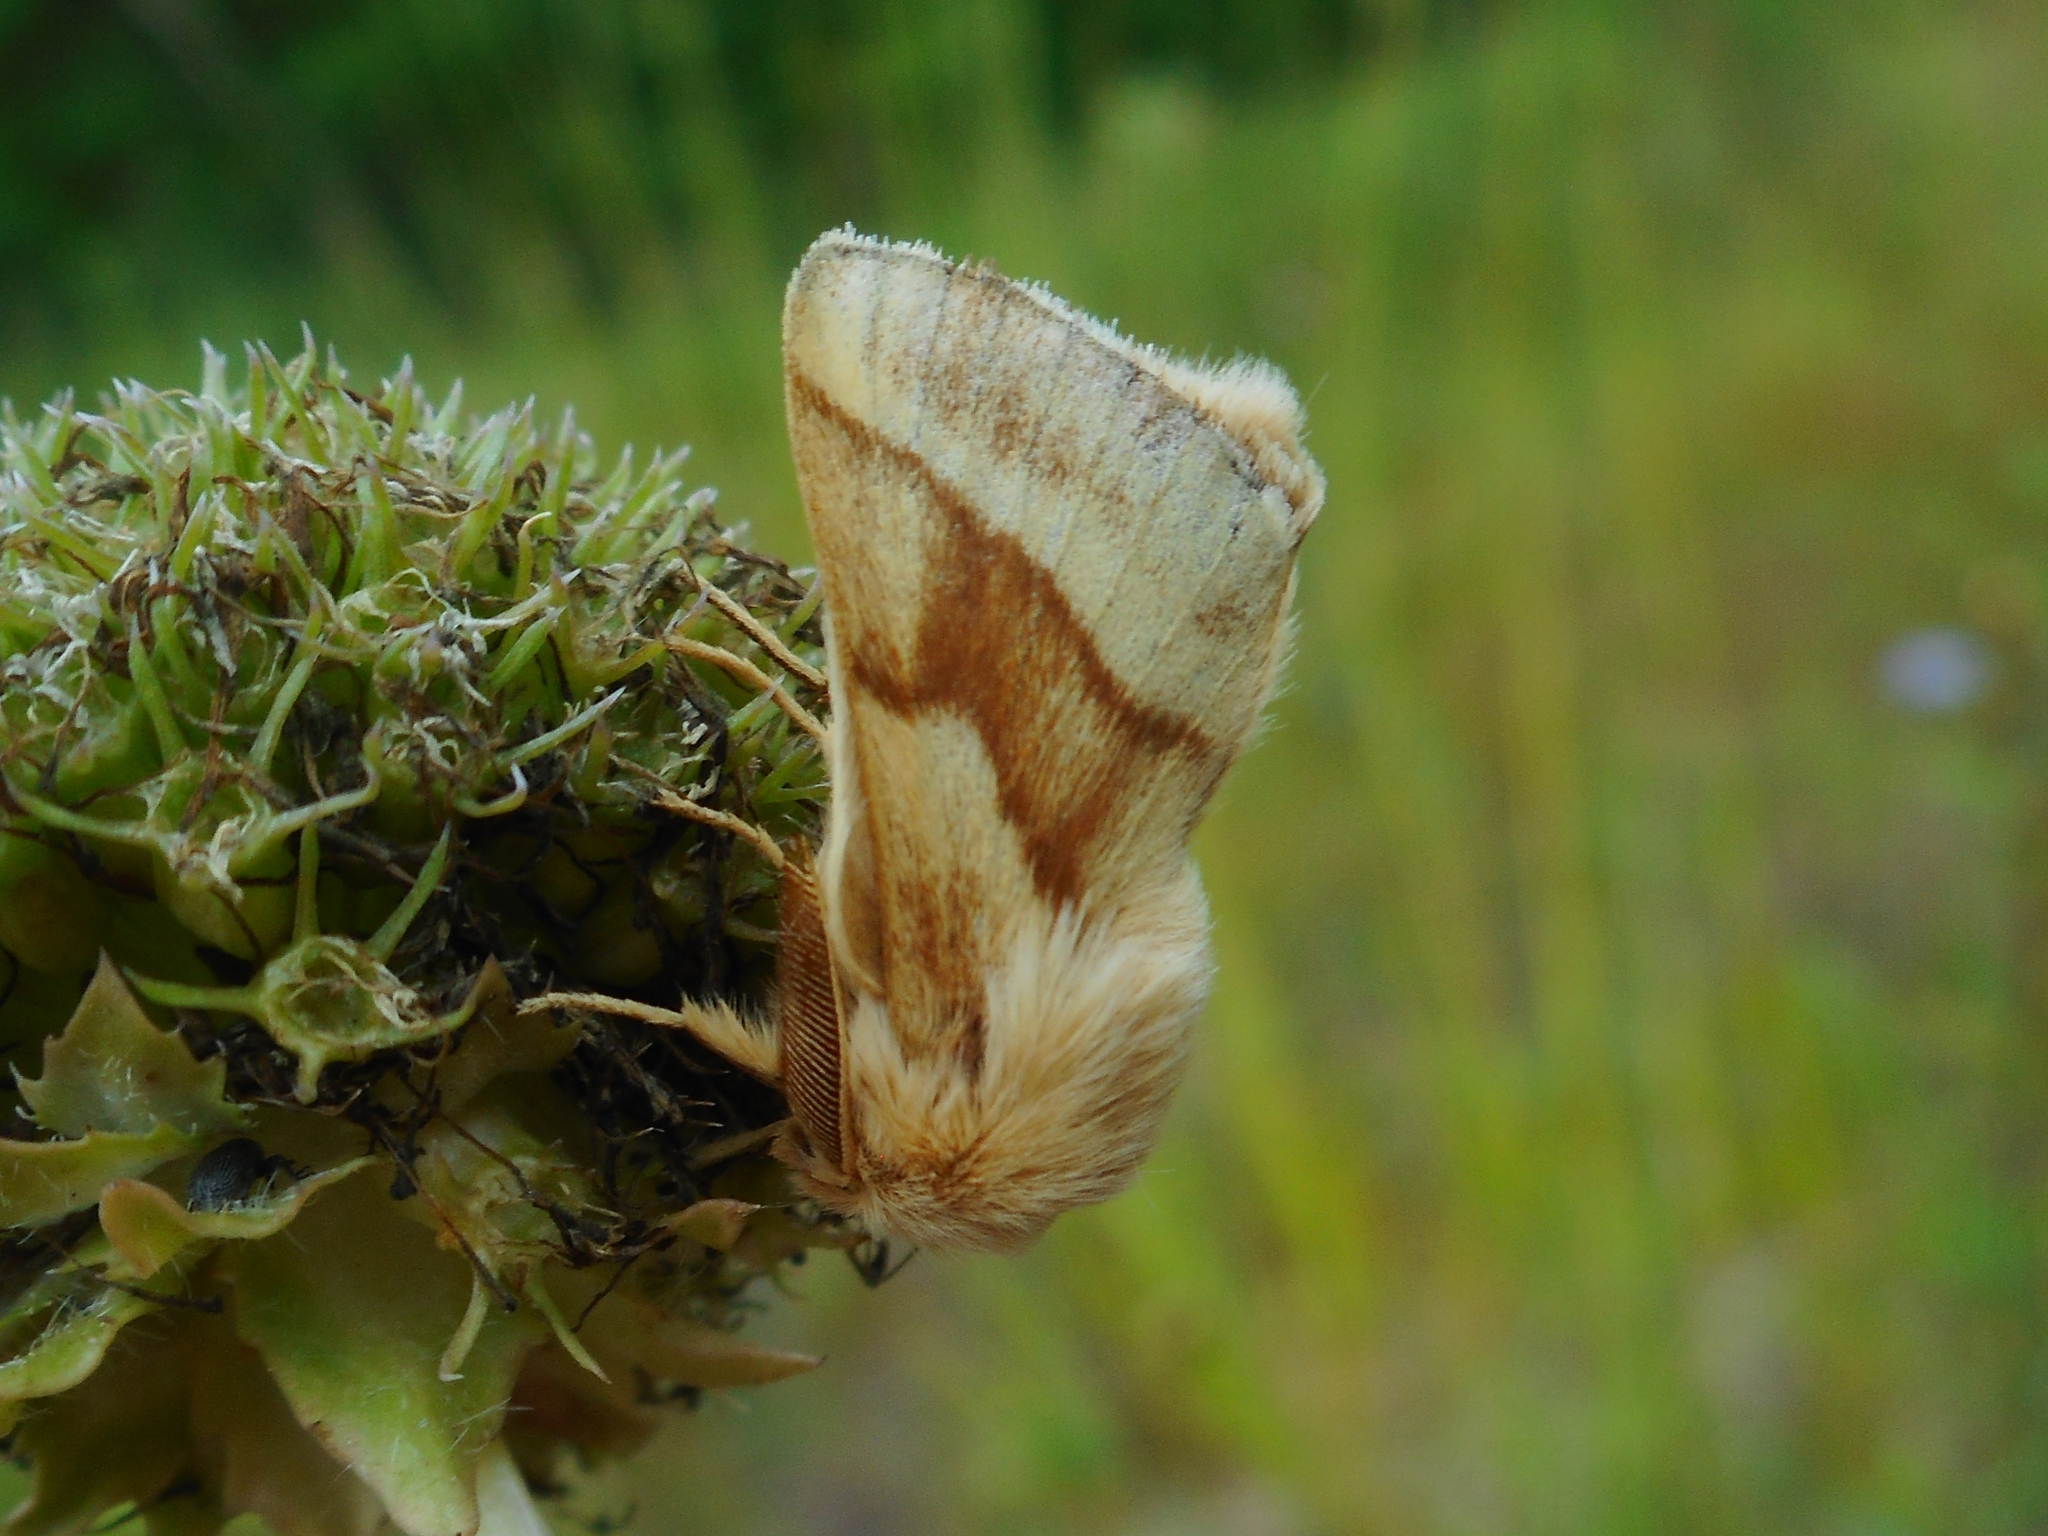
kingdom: Animalia
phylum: Arthropoda
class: Insecta
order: Lepidoptera
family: Lasiocampidae
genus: Malacosoma
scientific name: Malacosoma castrense
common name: Ground lackey
